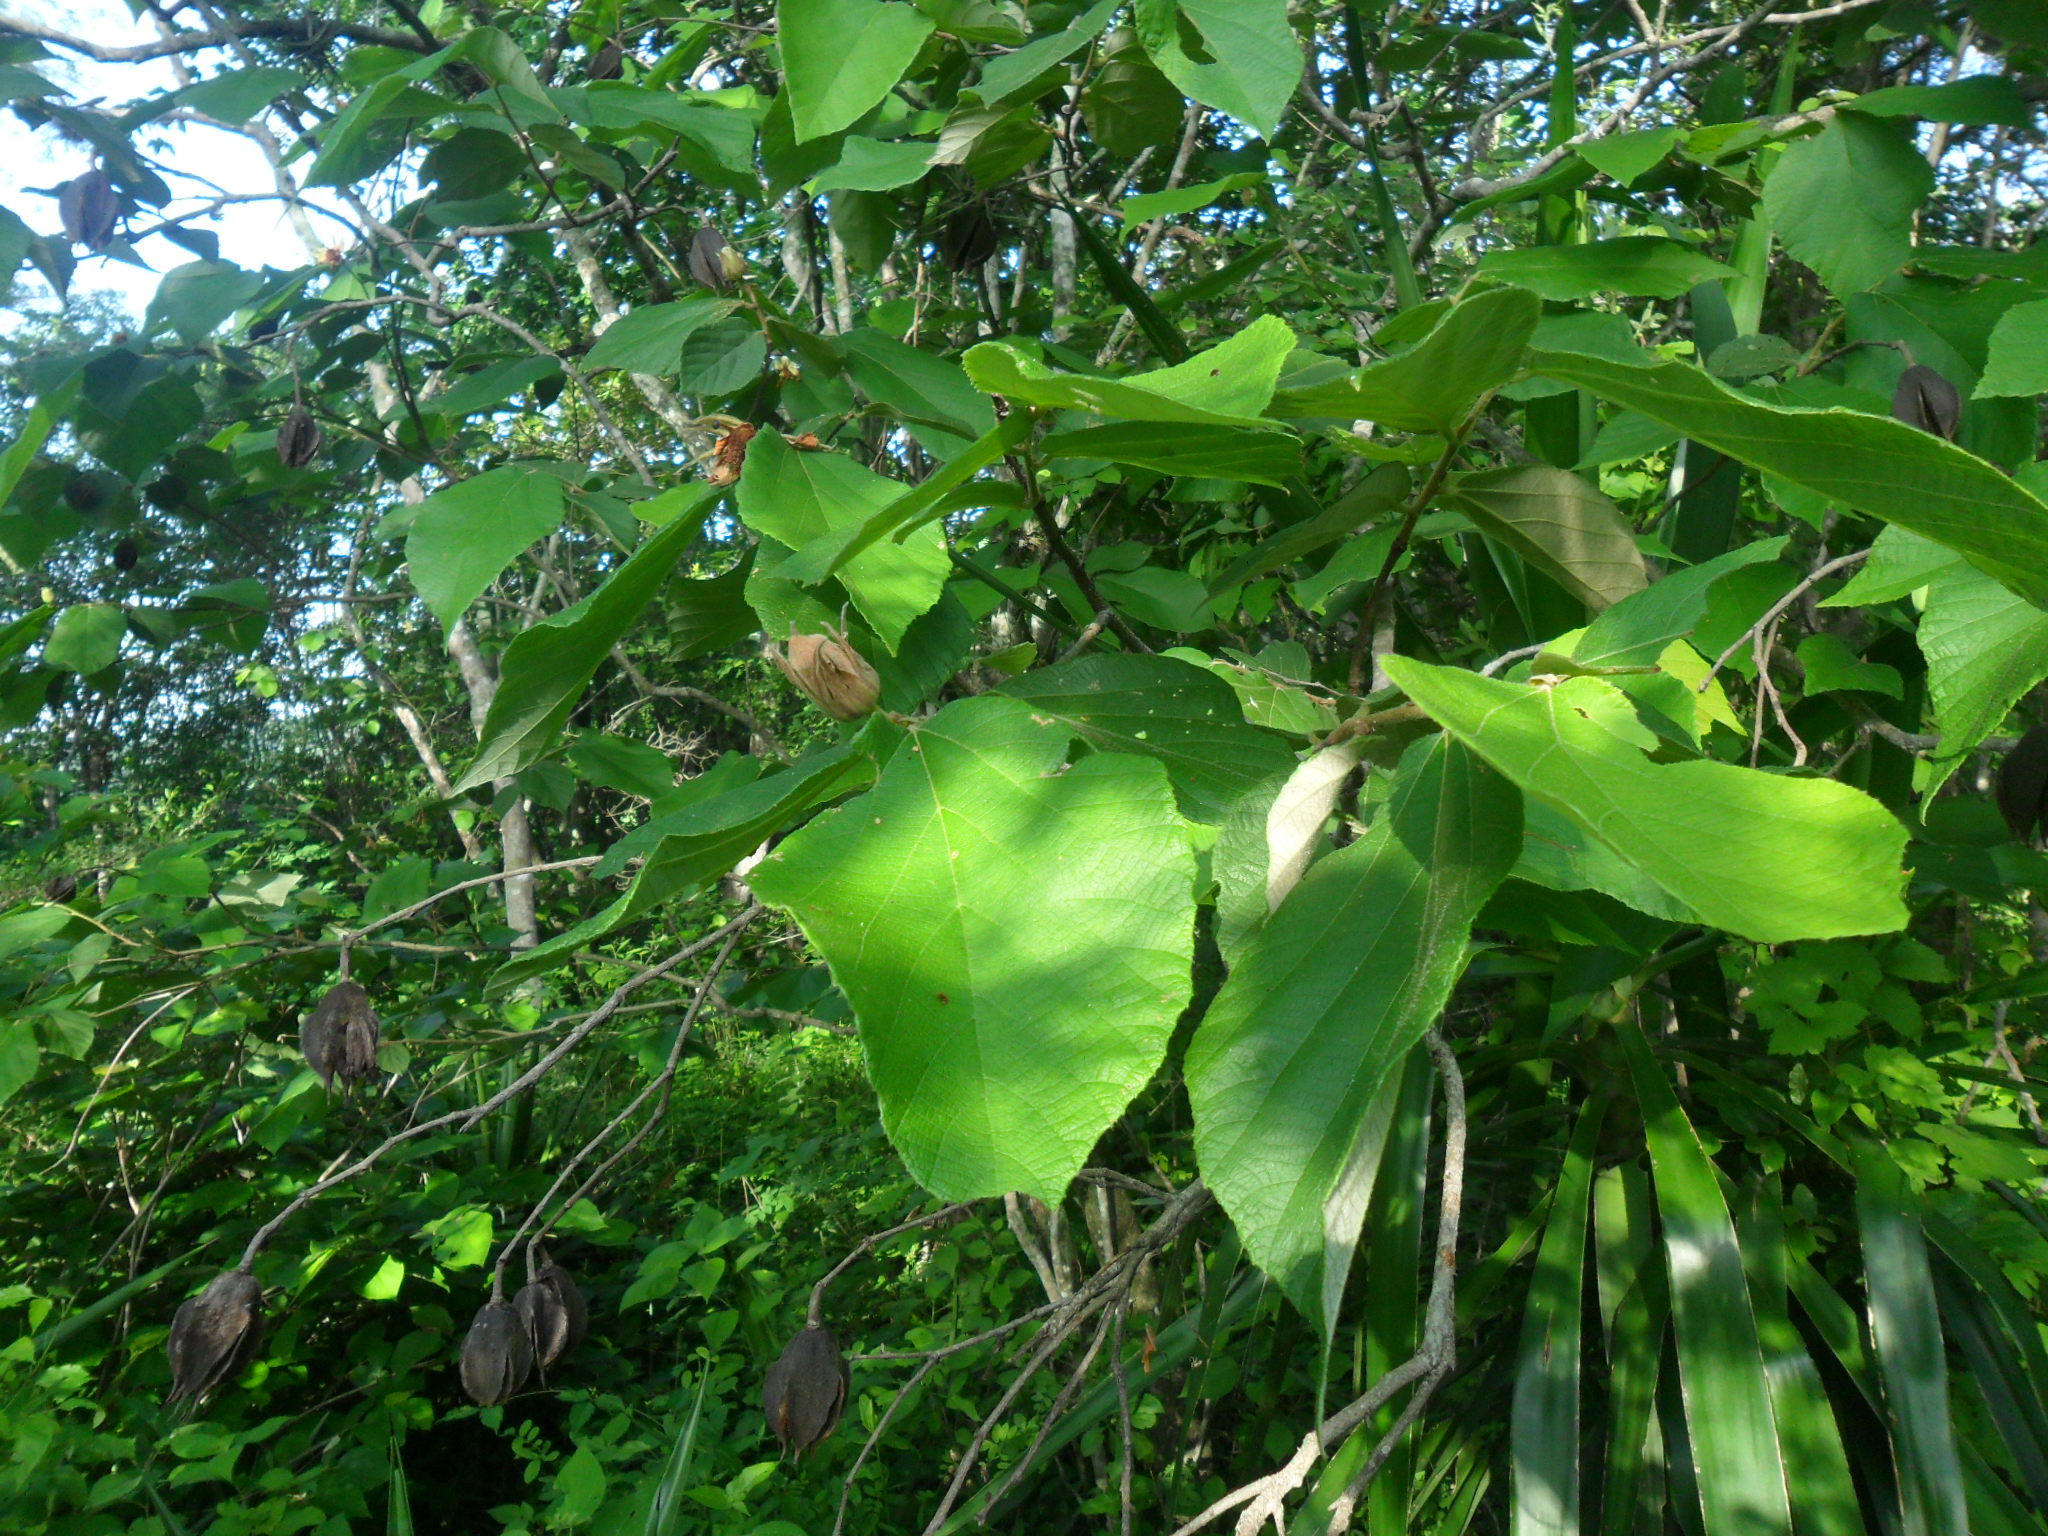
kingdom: Plantae
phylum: Tracheophyta
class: Magnoliopsida
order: Malvales
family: Malvaceae
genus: Luehea
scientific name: Luehea candida
